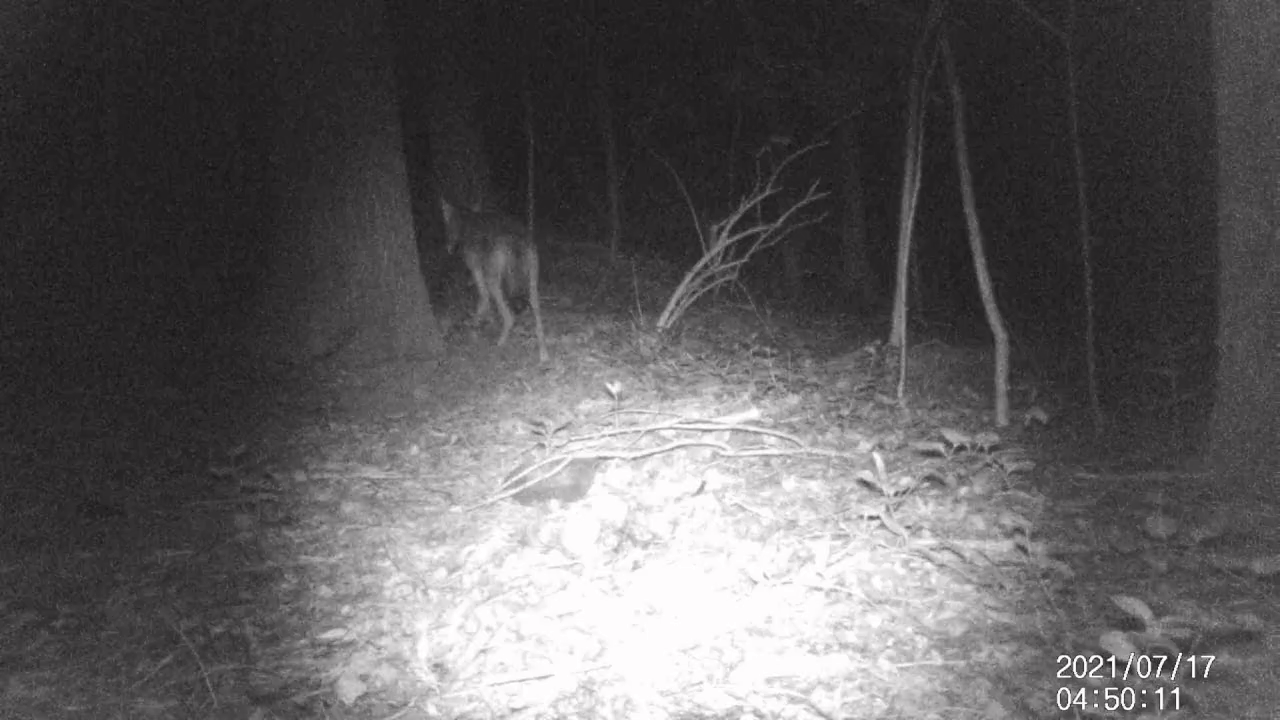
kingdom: Animalia
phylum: Chordata
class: Mammalia
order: Carnivora
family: Canidae
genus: Canis
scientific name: Canis latrans
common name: Coyote
